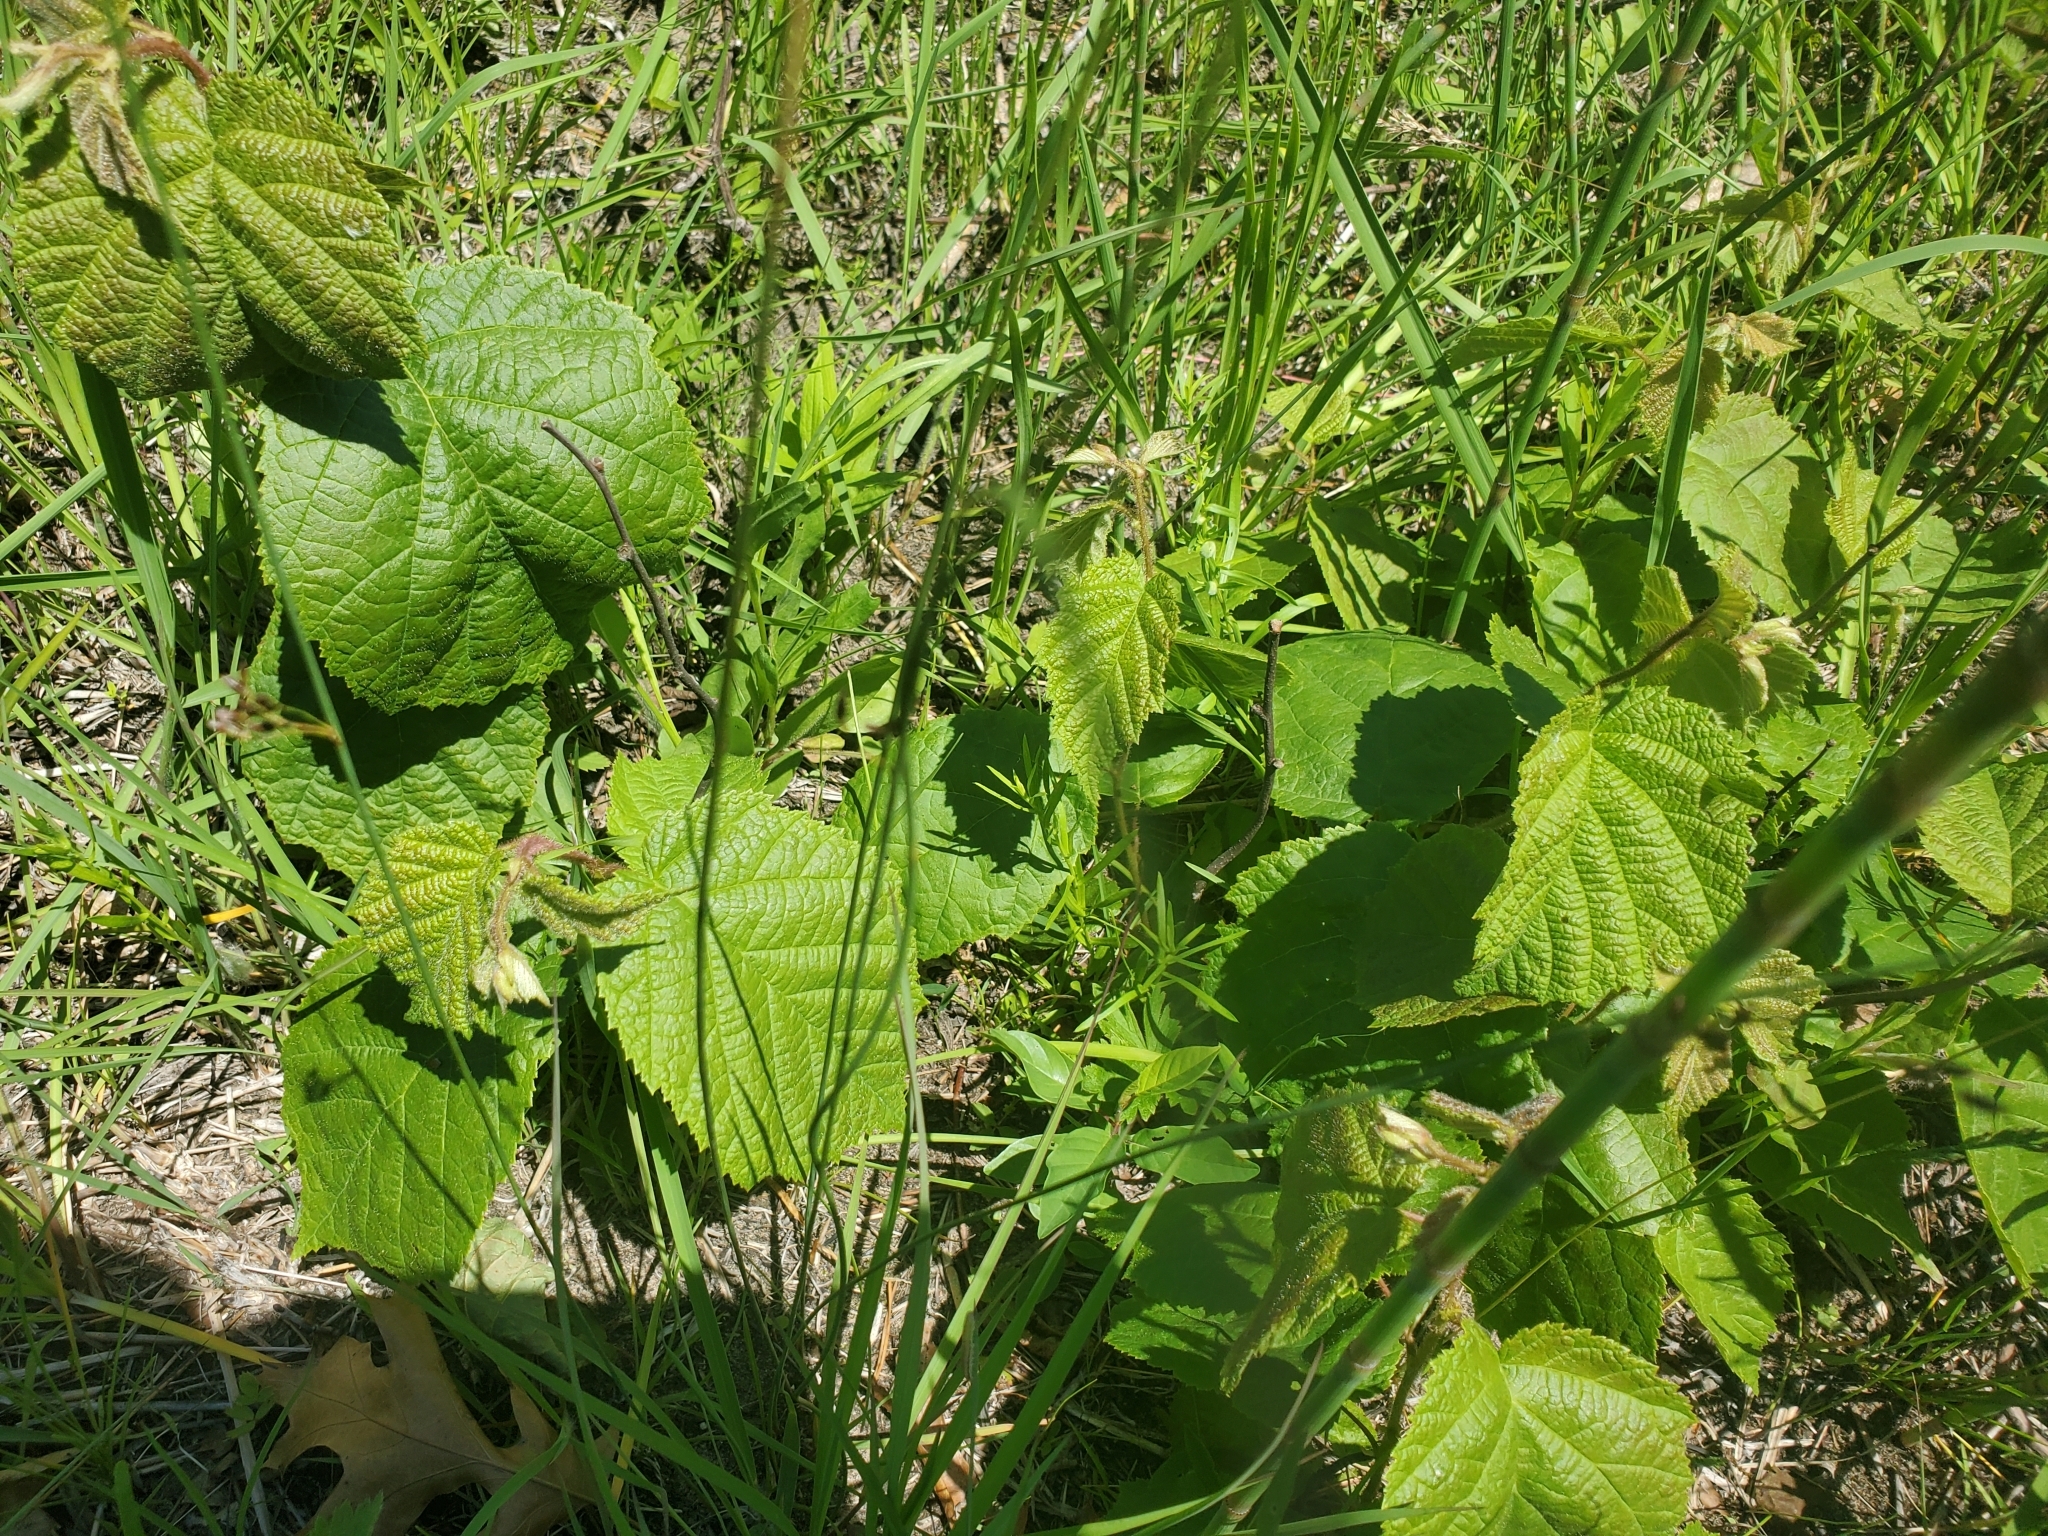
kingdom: Plantae
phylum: Tracheophyta
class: Magnoliopsida
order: Fagales
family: Betulaceae
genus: Corylus
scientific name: Corylus americana
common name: American hazel
